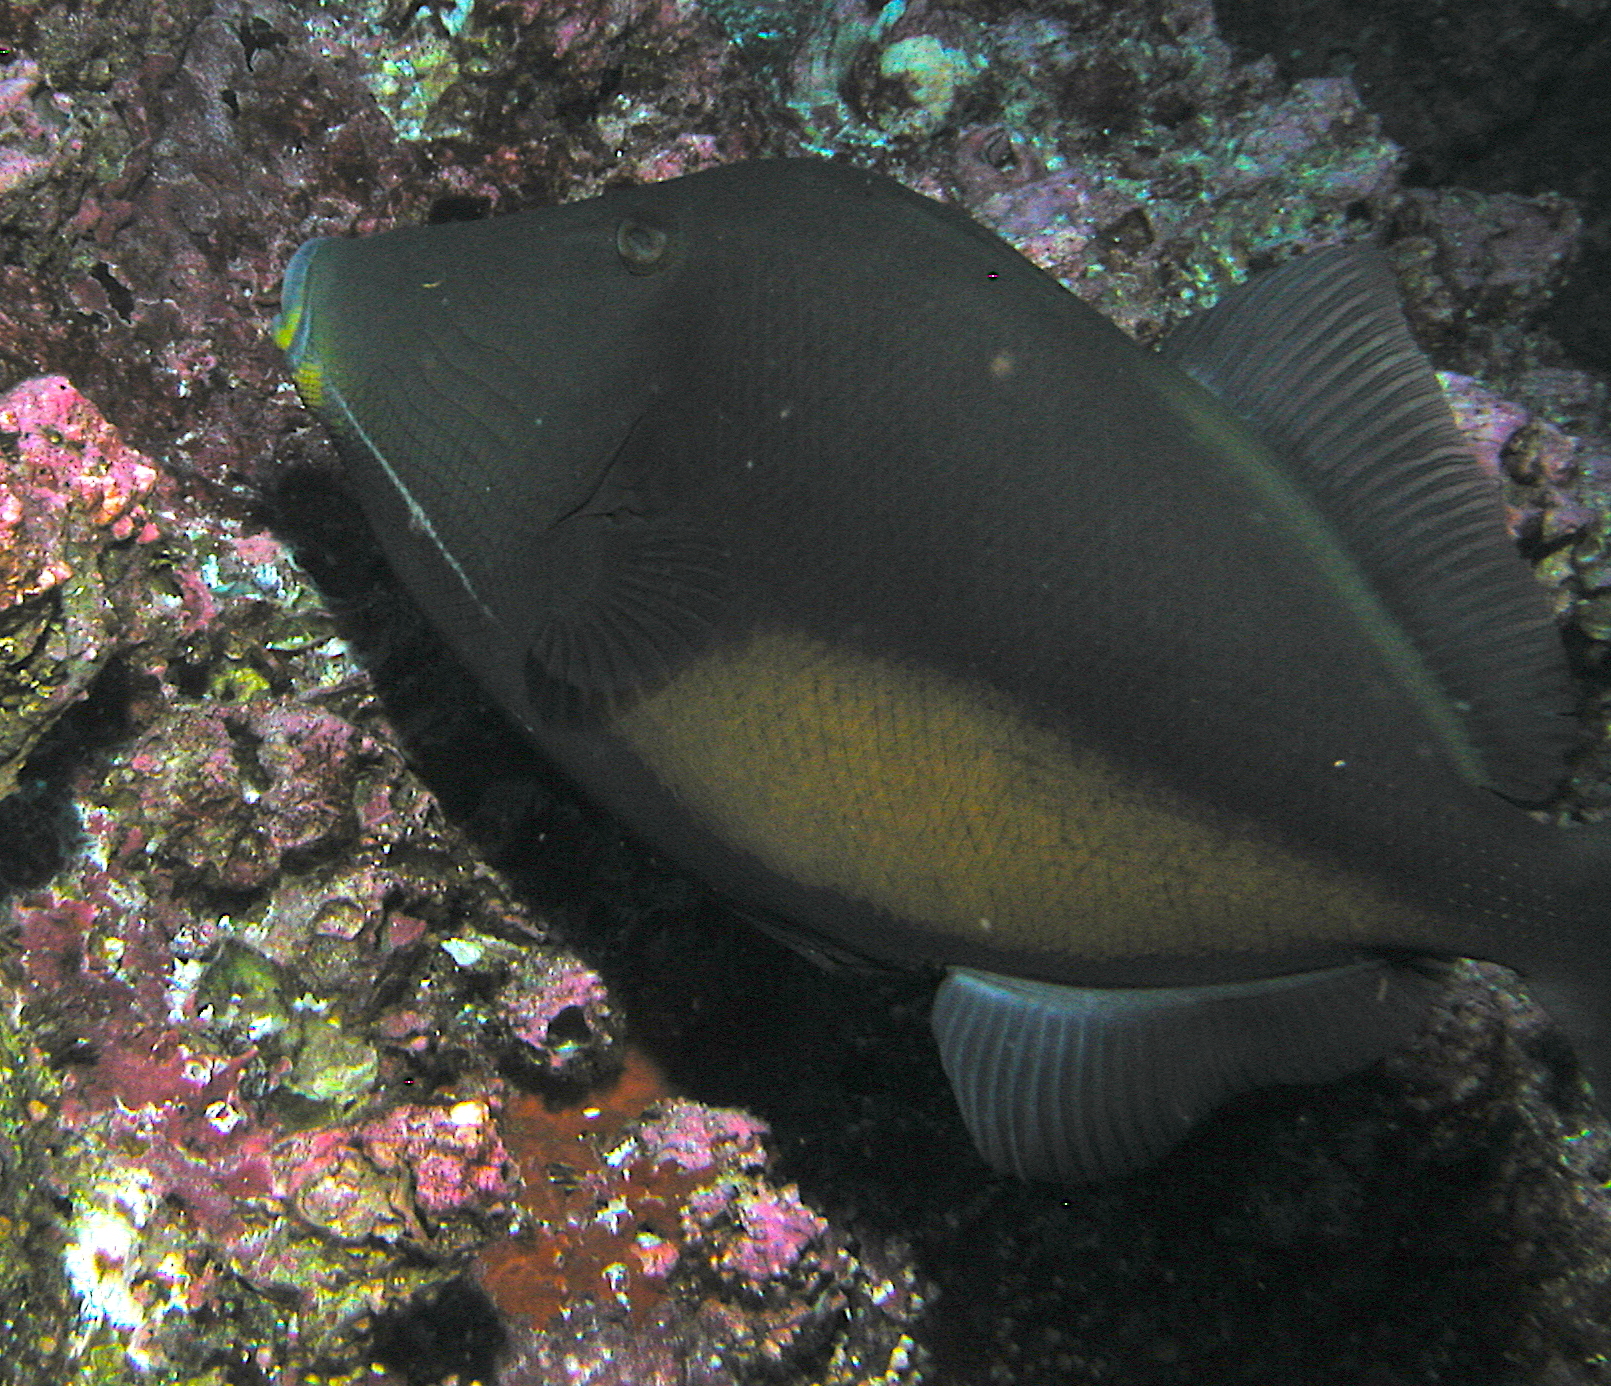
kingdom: Animalia
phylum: Chordata
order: Tetraodontiformes
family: Balistidae
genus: Sufflamen
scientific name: Sufflamen verres
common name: Orangeside triggerfish
